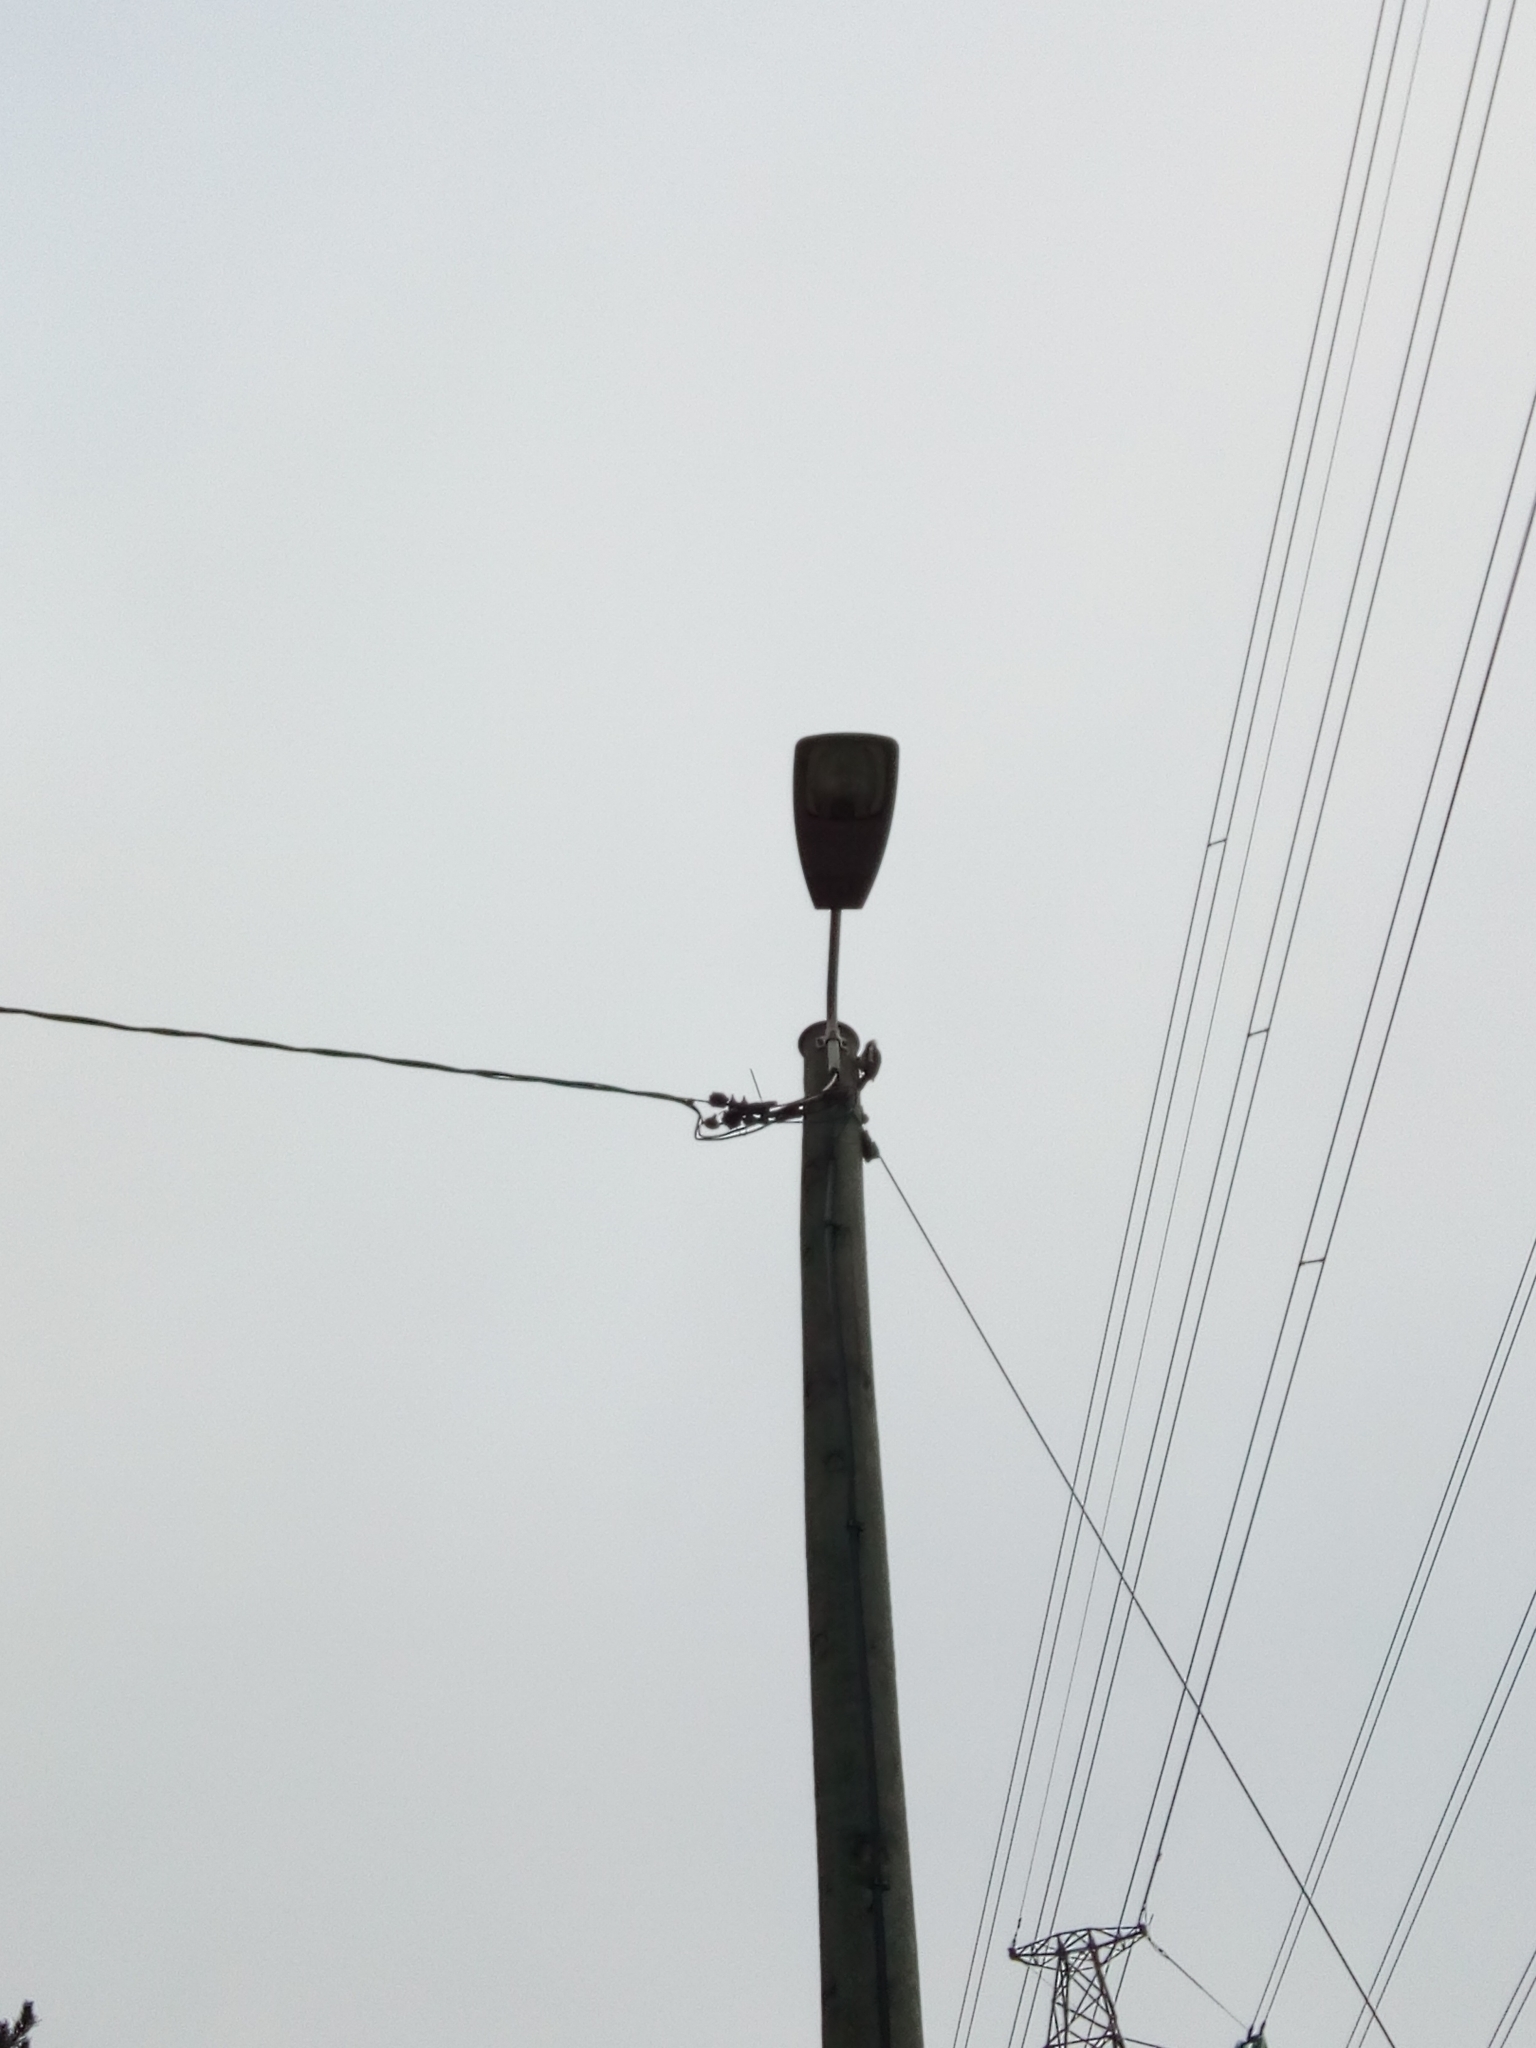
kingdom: Animalia
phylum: Chordata
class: Aves
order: Piciformes
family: Picidae
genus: Dendrocopos
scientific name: Dendrocopos major
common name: Great spotted woodpecker
